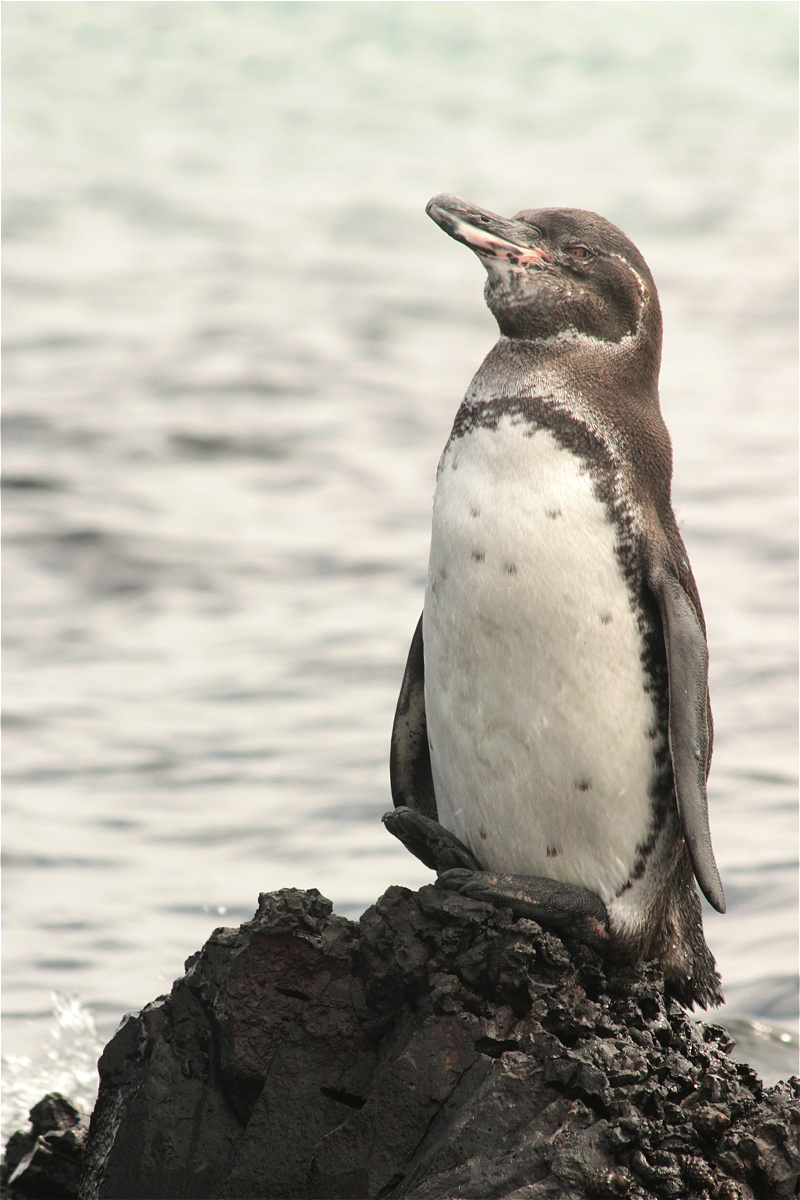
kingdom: Animalia
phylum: Chordata
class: Aves
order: Sphenisciformes
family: Spheniscidae
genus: Spheniscus
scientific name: Spheniscus mendiculus
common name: Galapagos penguin
